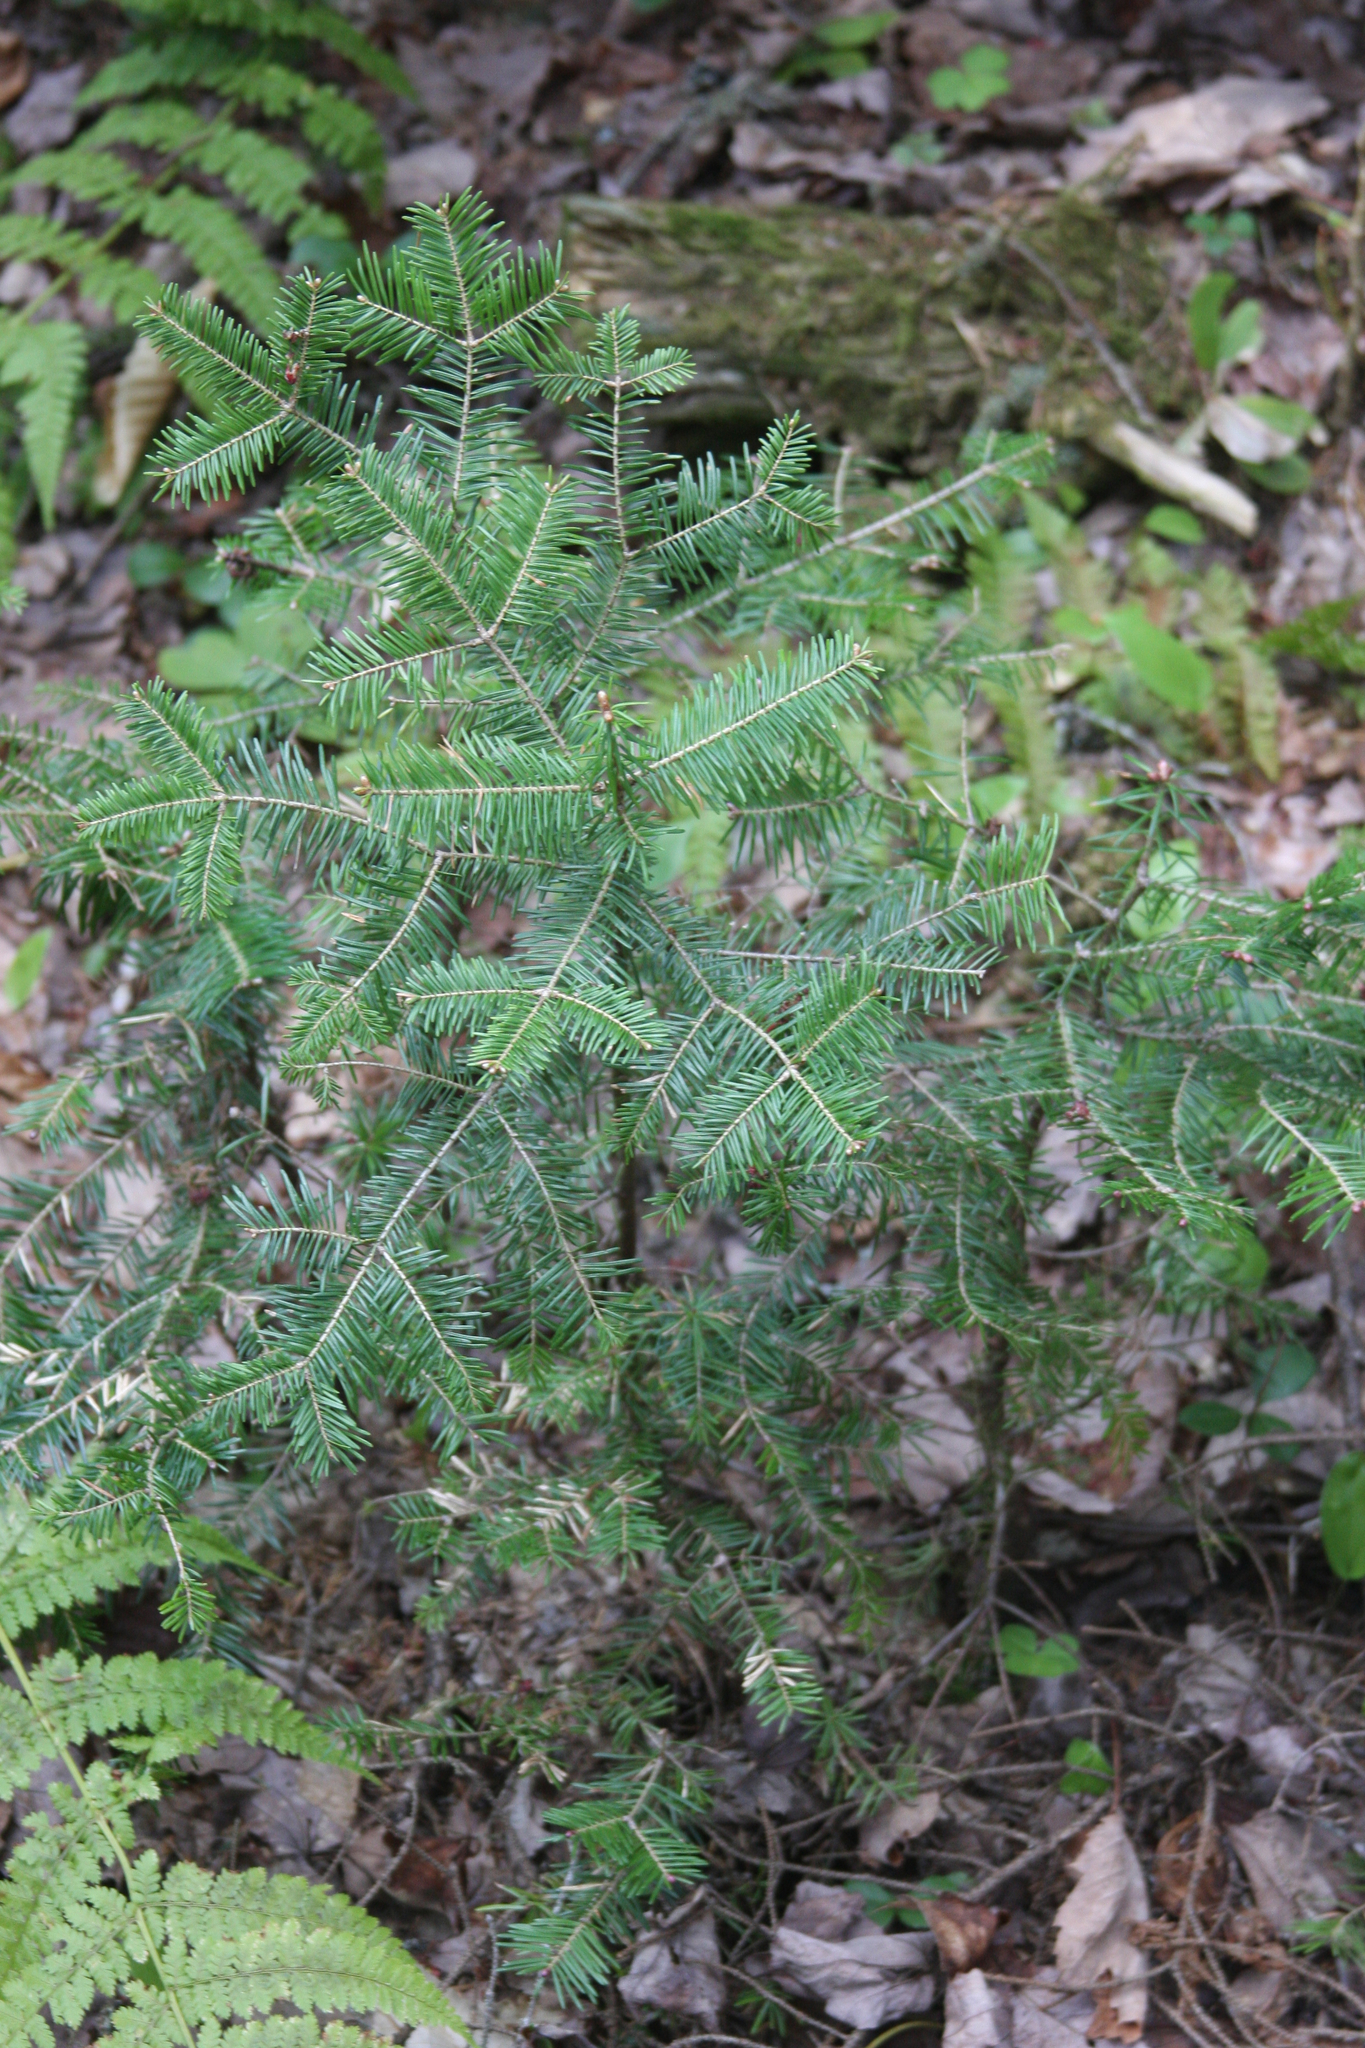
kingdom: Plantae
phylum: Tracheophyta
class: Pinopsida
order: Pinales
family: Pinaceae
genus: Abies
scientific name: Abies balsamea
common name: Balsam fir
